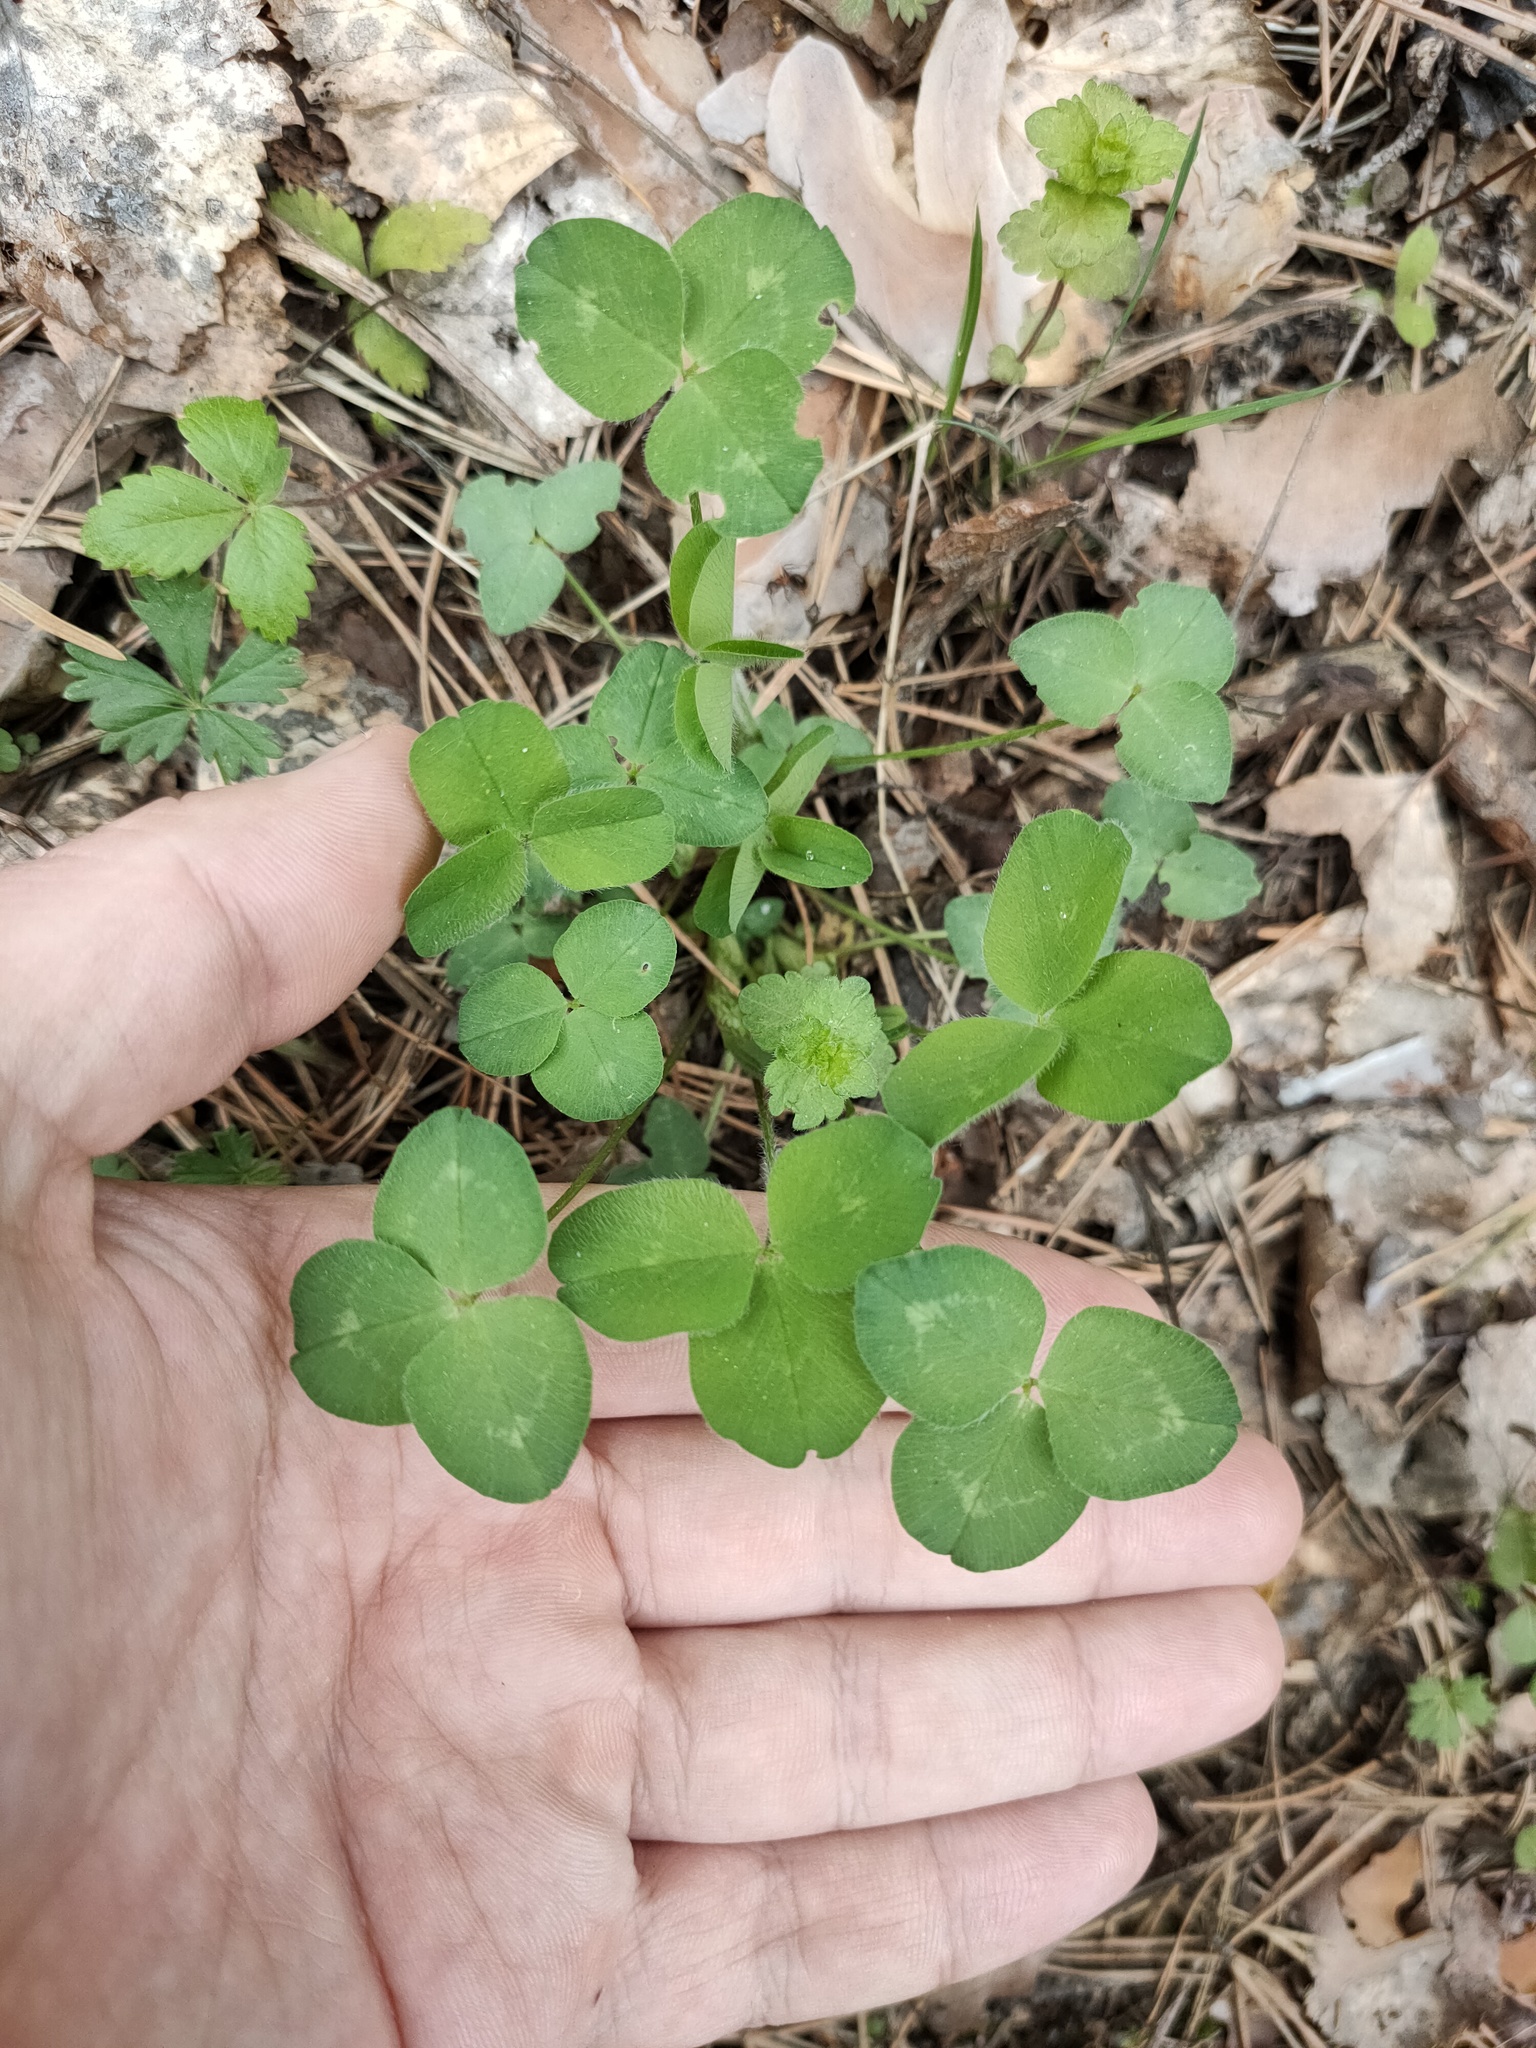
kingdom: Plantae
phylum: Tracheophyta
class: Magnoliopsida
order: Fabales
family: Fabaceae
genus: Trifolium
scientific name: Trifolium pratense
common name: Red clover
